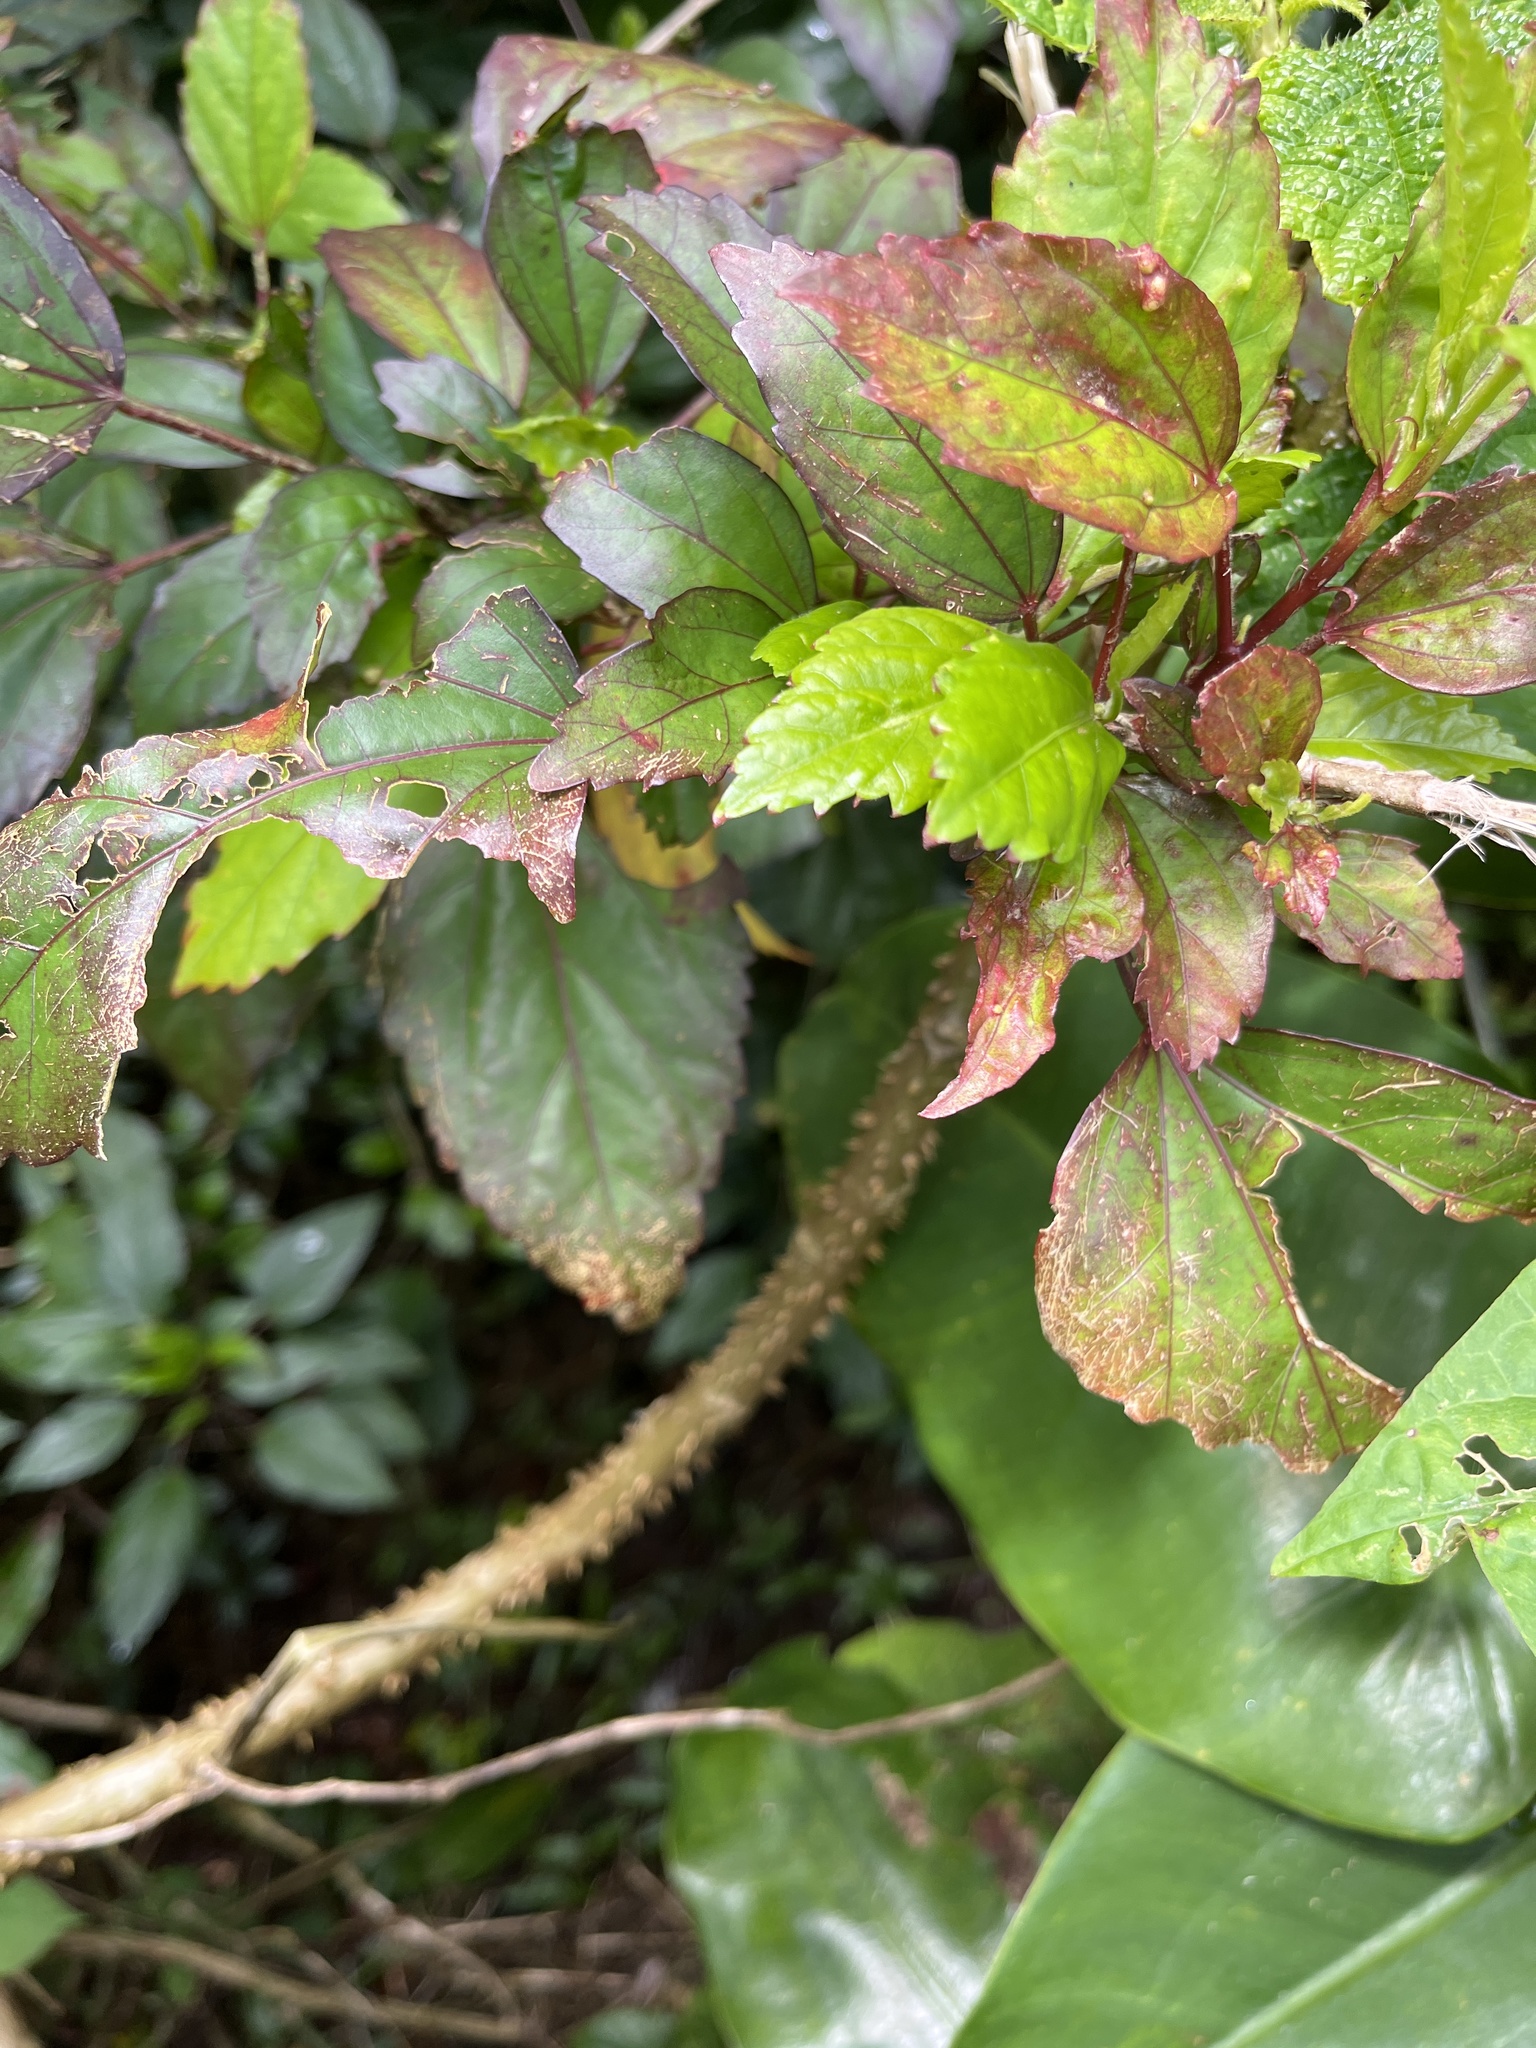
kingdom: Plantae
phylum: Tracheophyta
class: Magnoliopsida
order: Malvales
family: Malvaceae
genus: Hibiscus
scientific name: Hibiscus archeri
